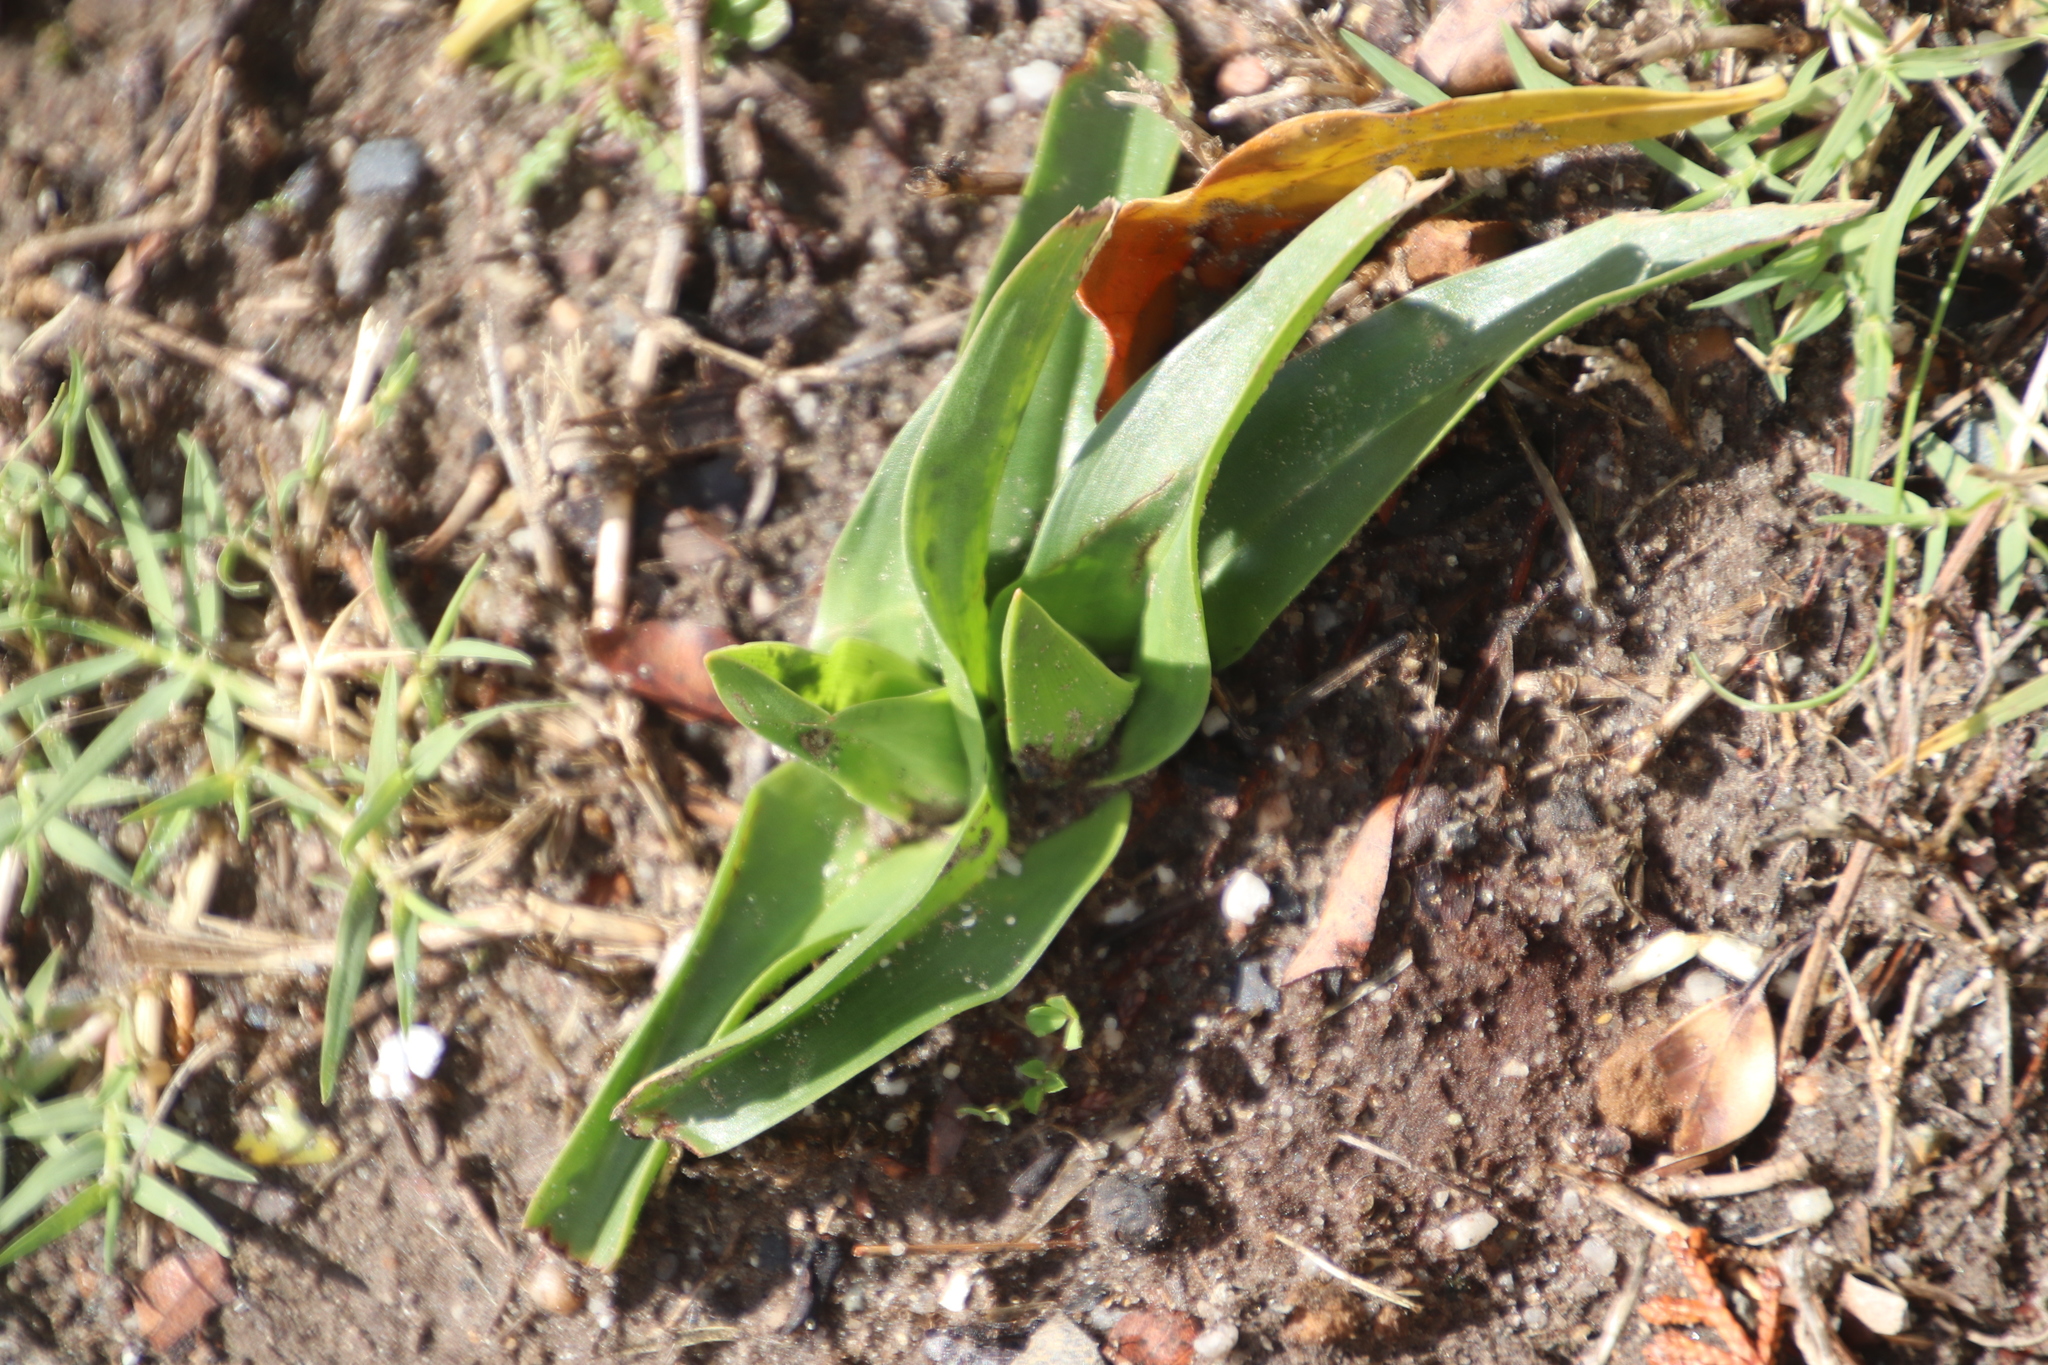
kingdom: Plantae
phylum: Tracheophyta
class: Liliopsida
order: Liliales
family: Colchicaceae
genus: Colchicum
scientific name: Colchicum eucomoides
